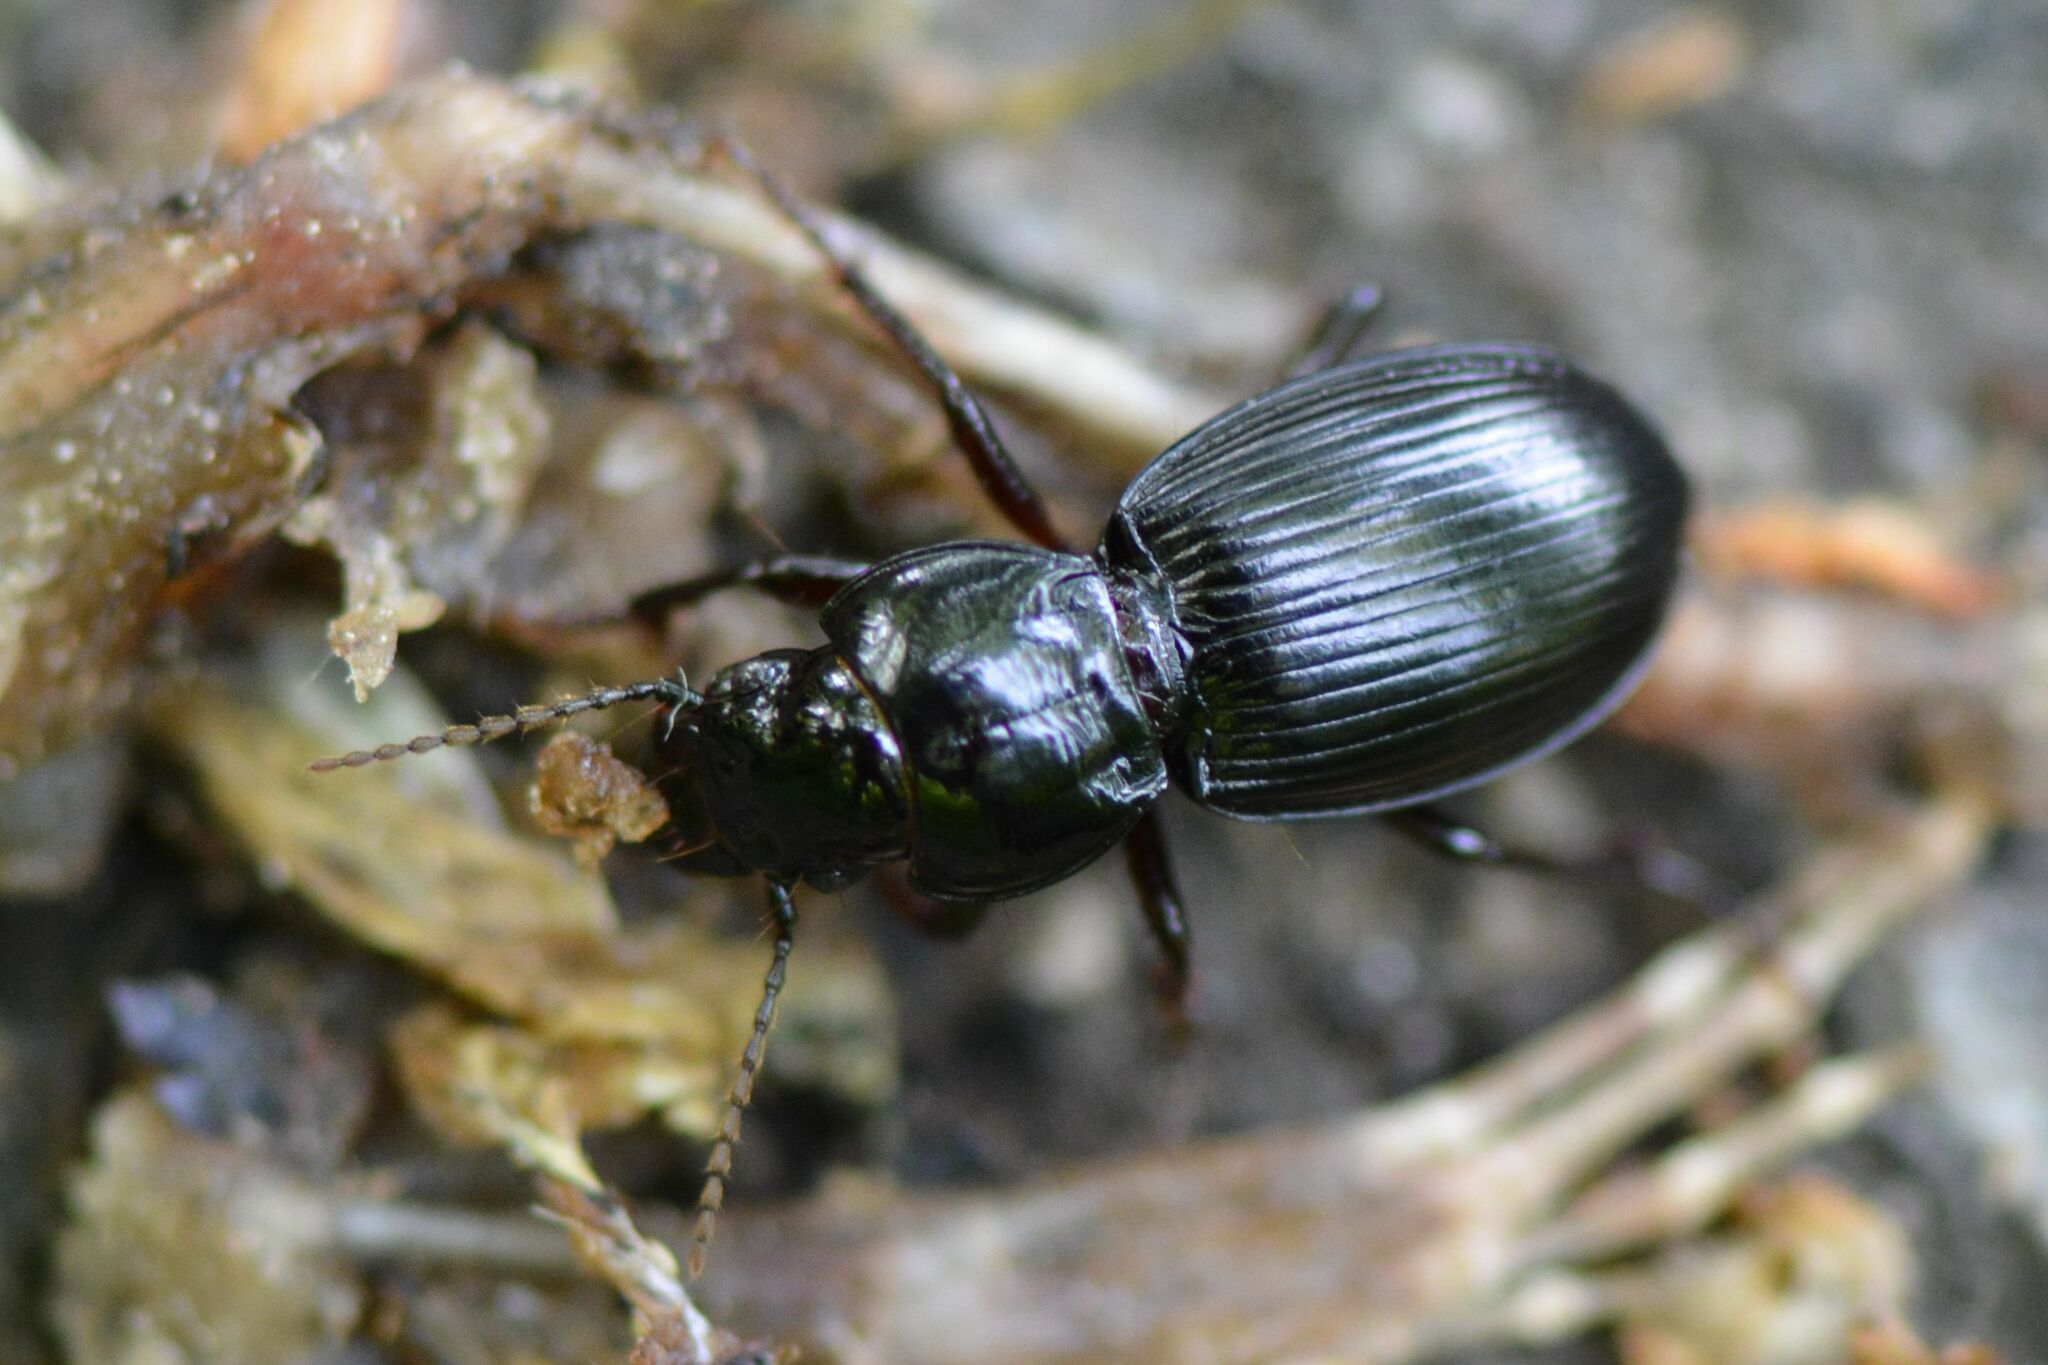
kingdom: Animalia
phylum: Arthropoda
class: Insecta
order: Coleoptera
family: Carabidae
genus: Molops
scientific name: Molops piceus
